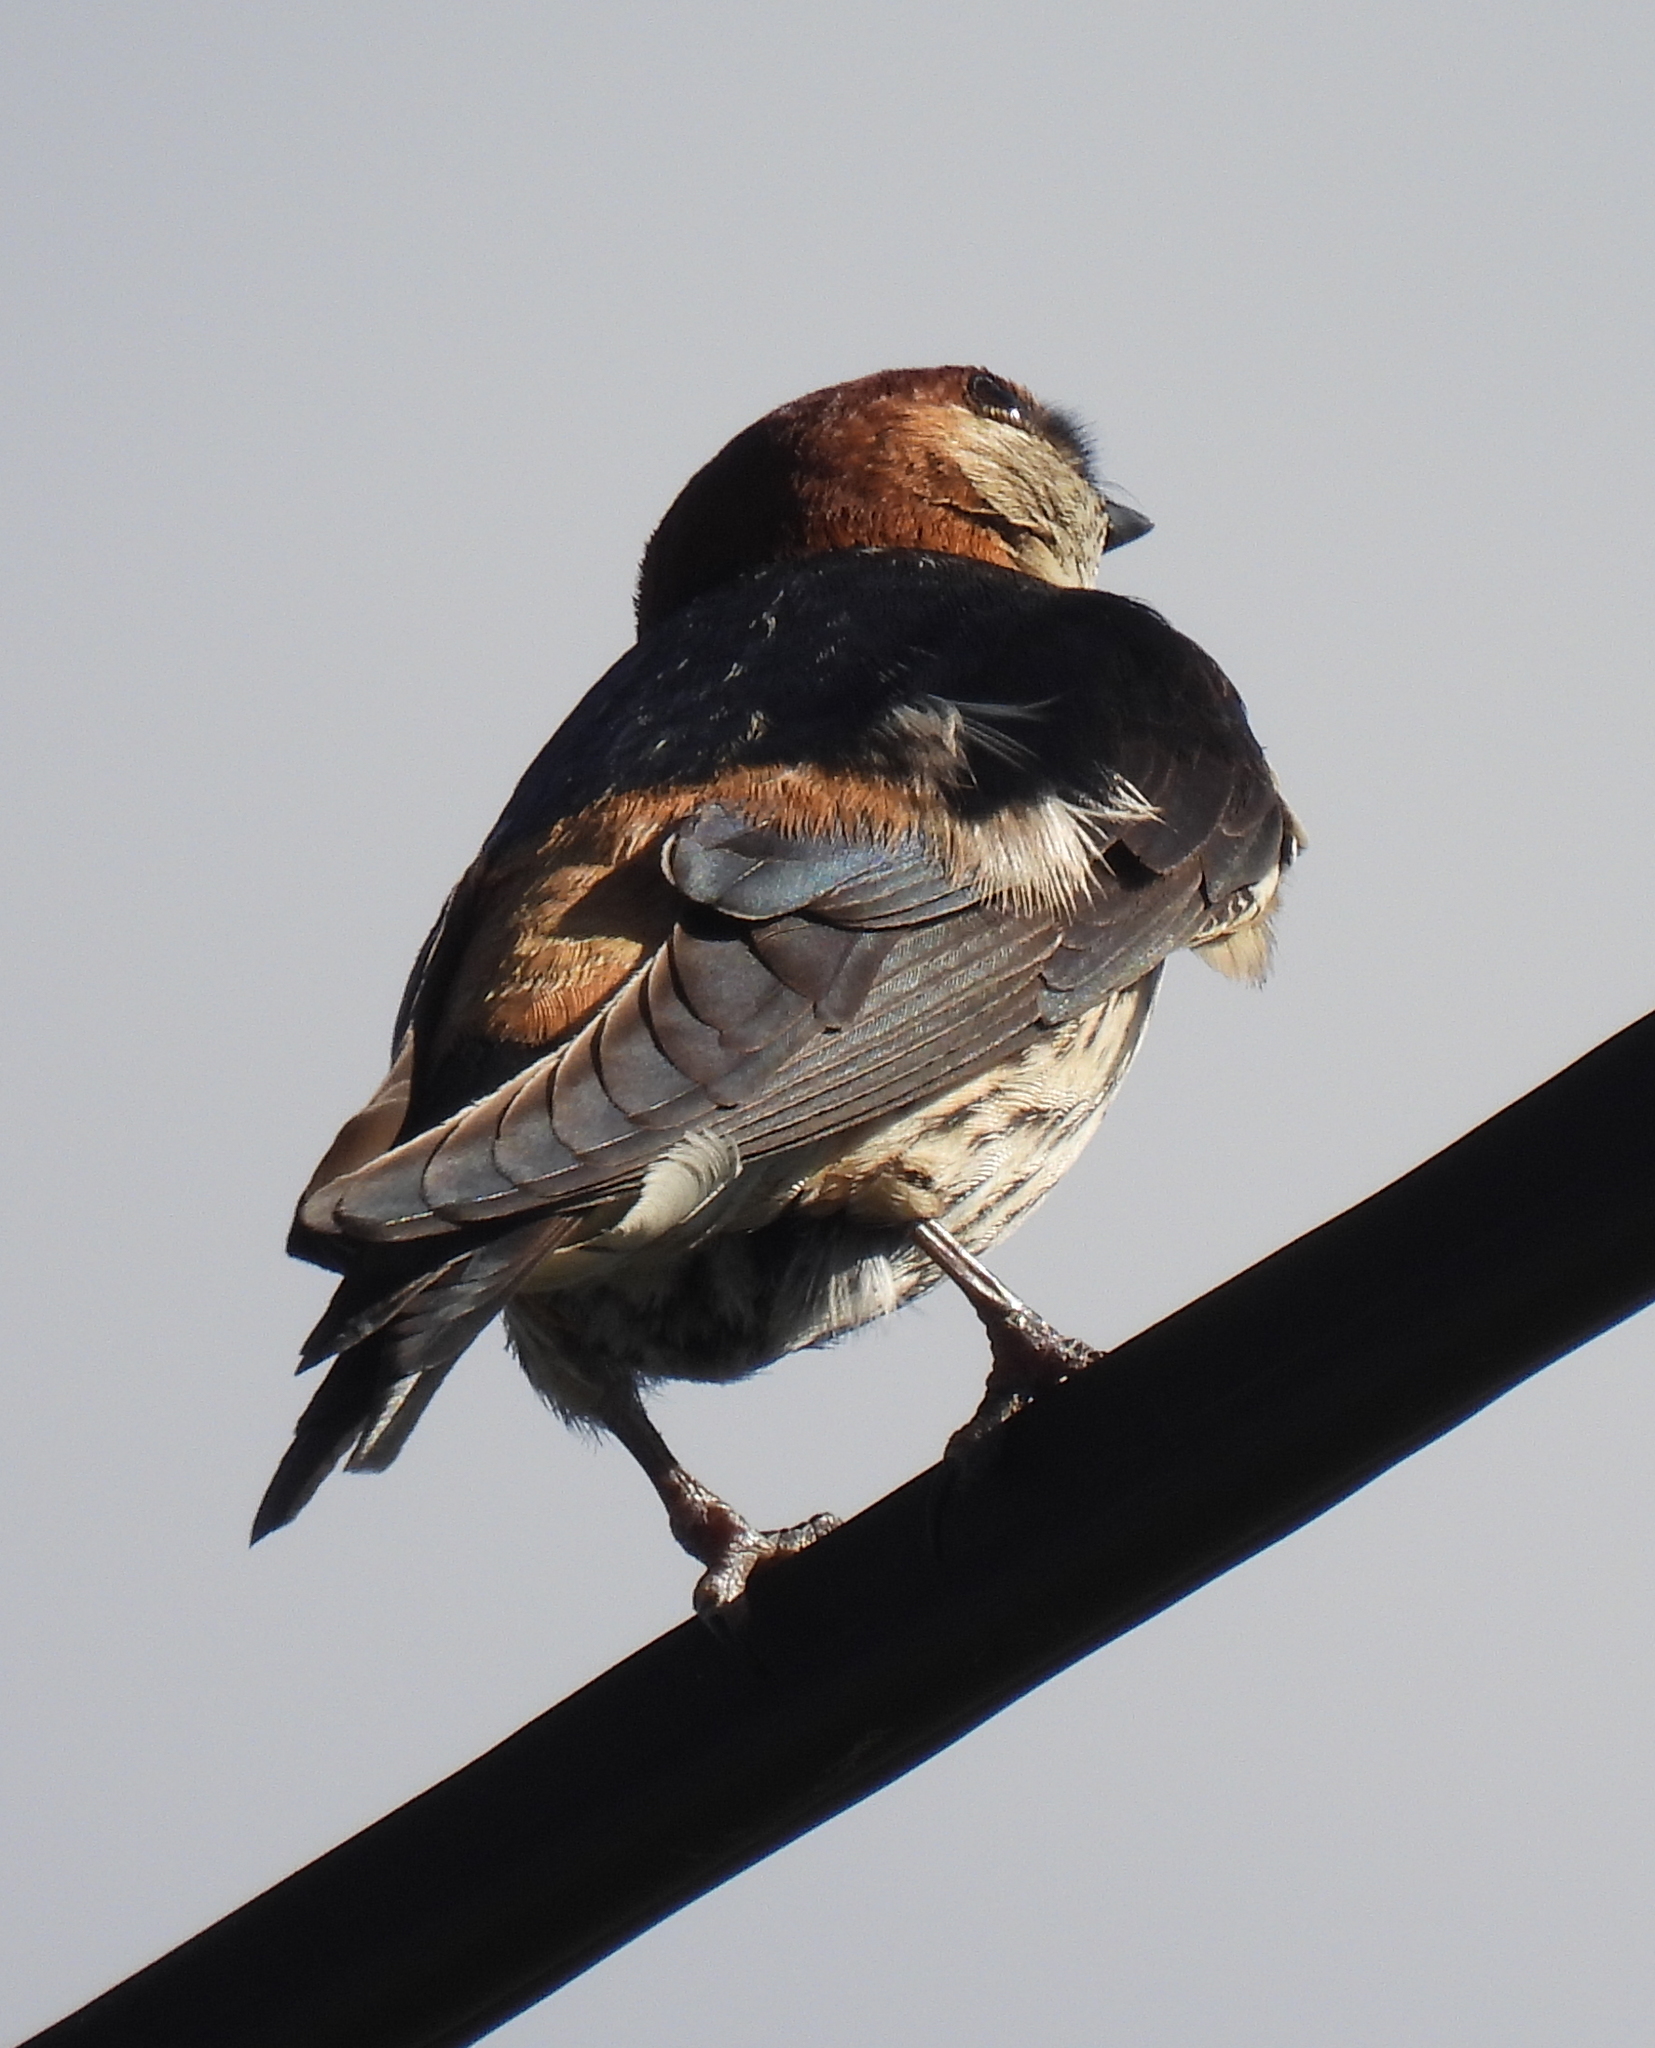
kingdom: Animalia
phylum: Chordata
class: Aves
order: Passeriformes
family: Hirundinidae
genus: Cecropis
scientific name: Cecropis cucullata
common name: Greater striped-swallow
